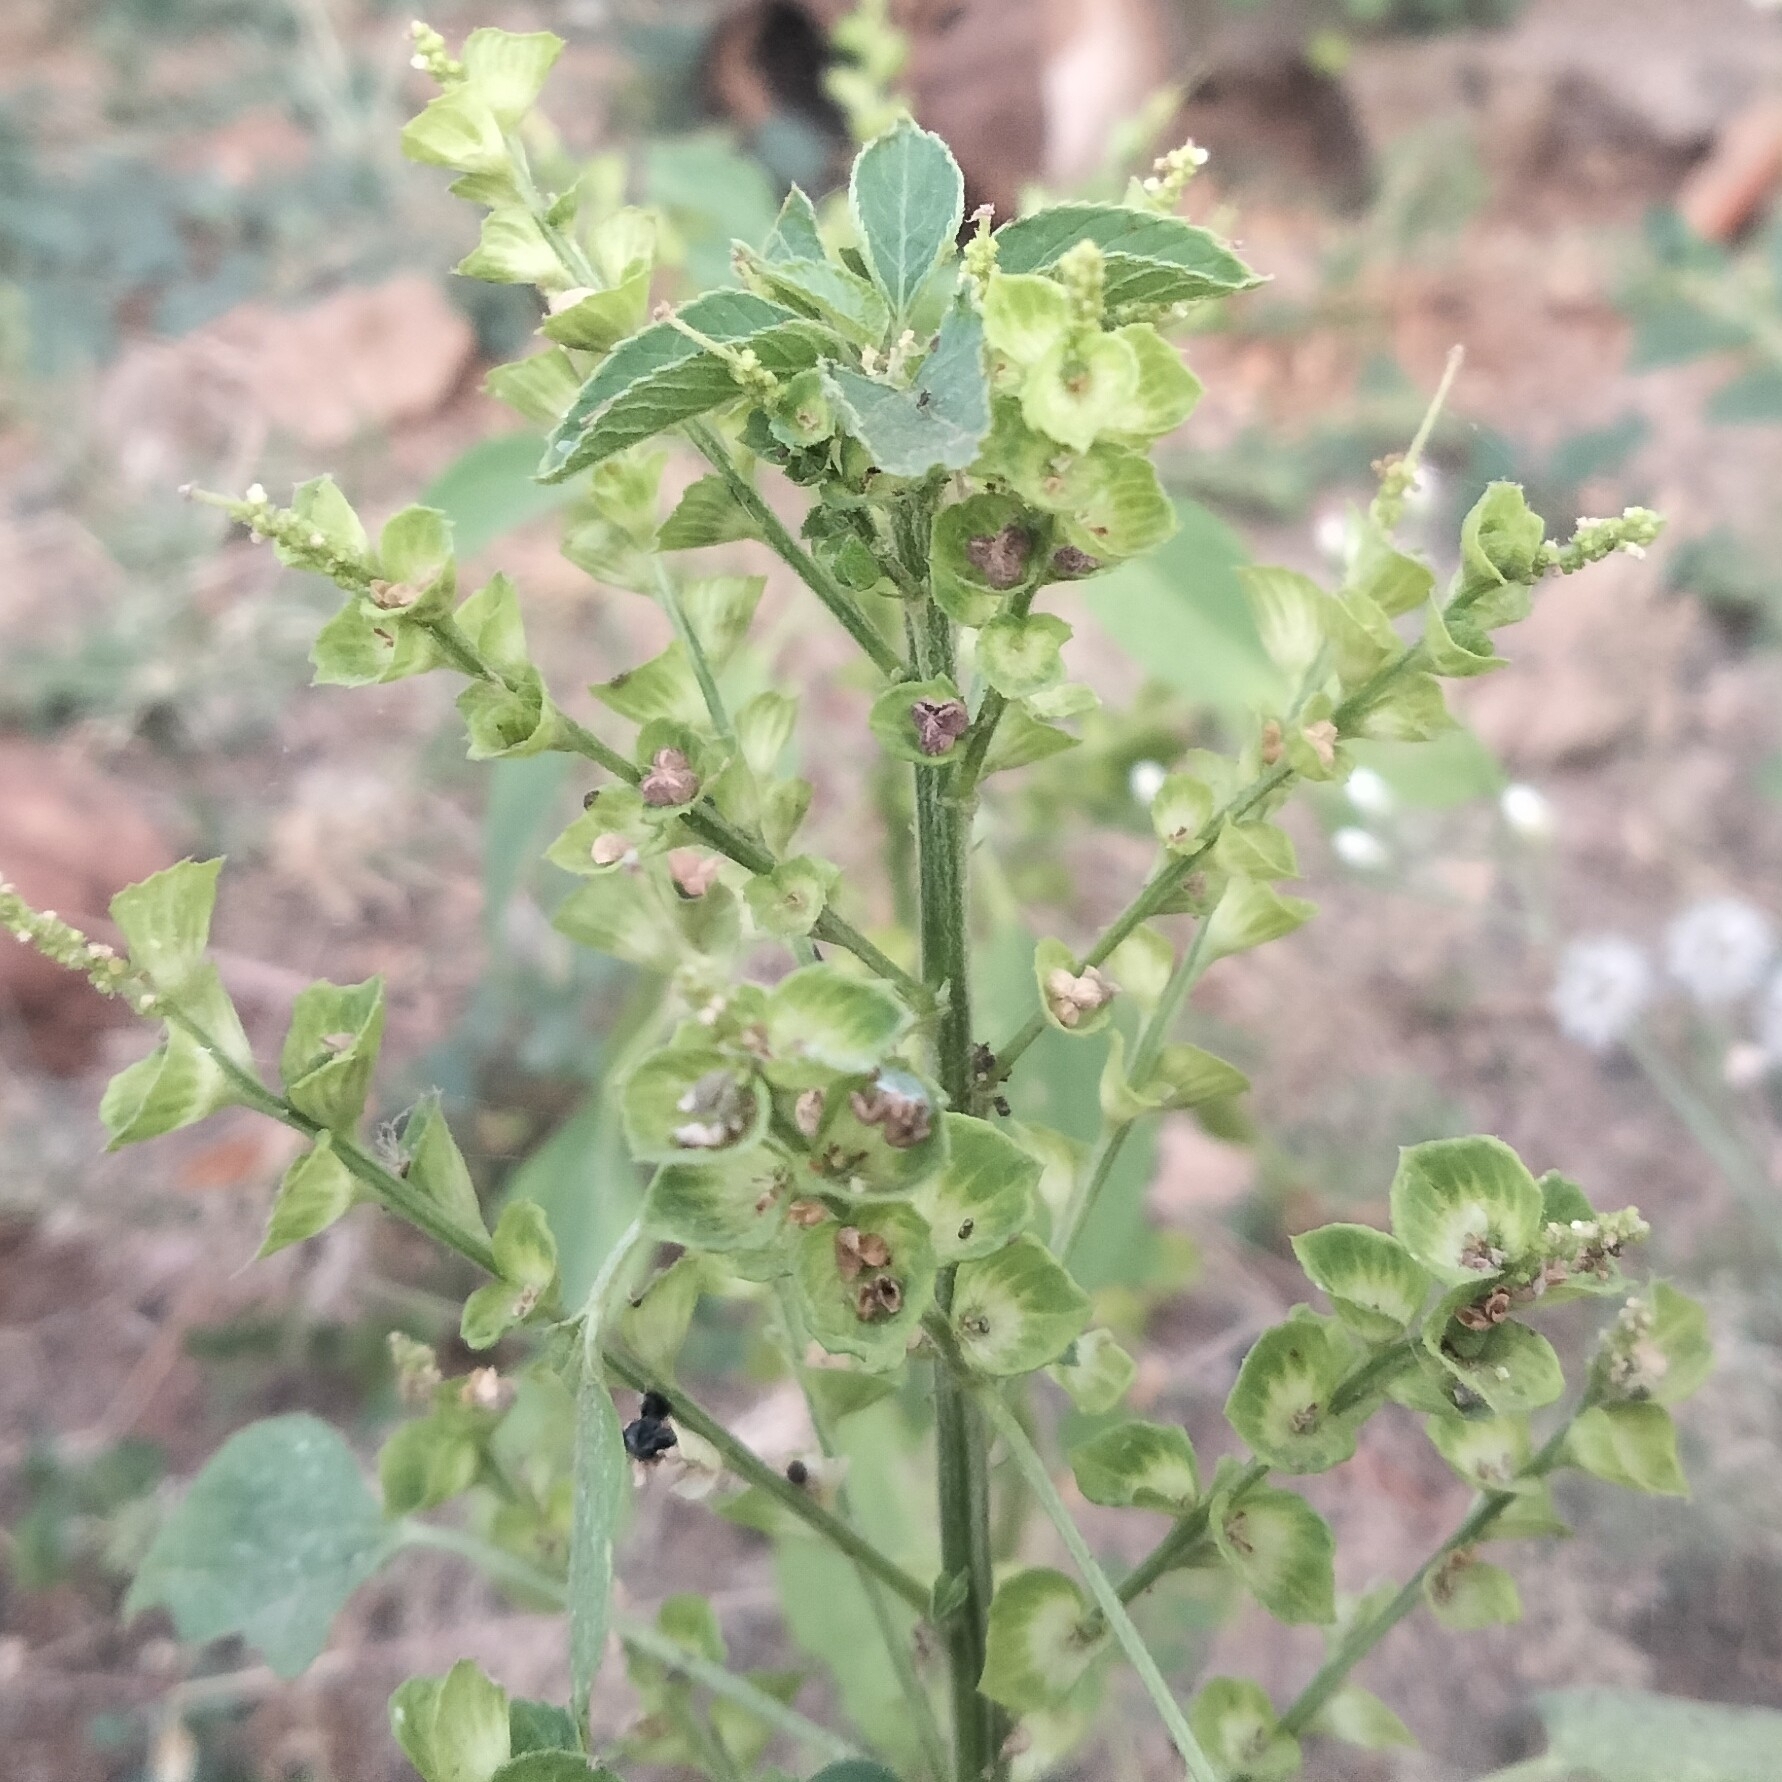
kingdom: Plantae
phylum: Tracheophyta
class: Magnoliopsida
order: Malpighiales
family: Euphorbiaceae
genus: Acalypha
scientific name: Acalypha indica
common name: Indian acalypha
